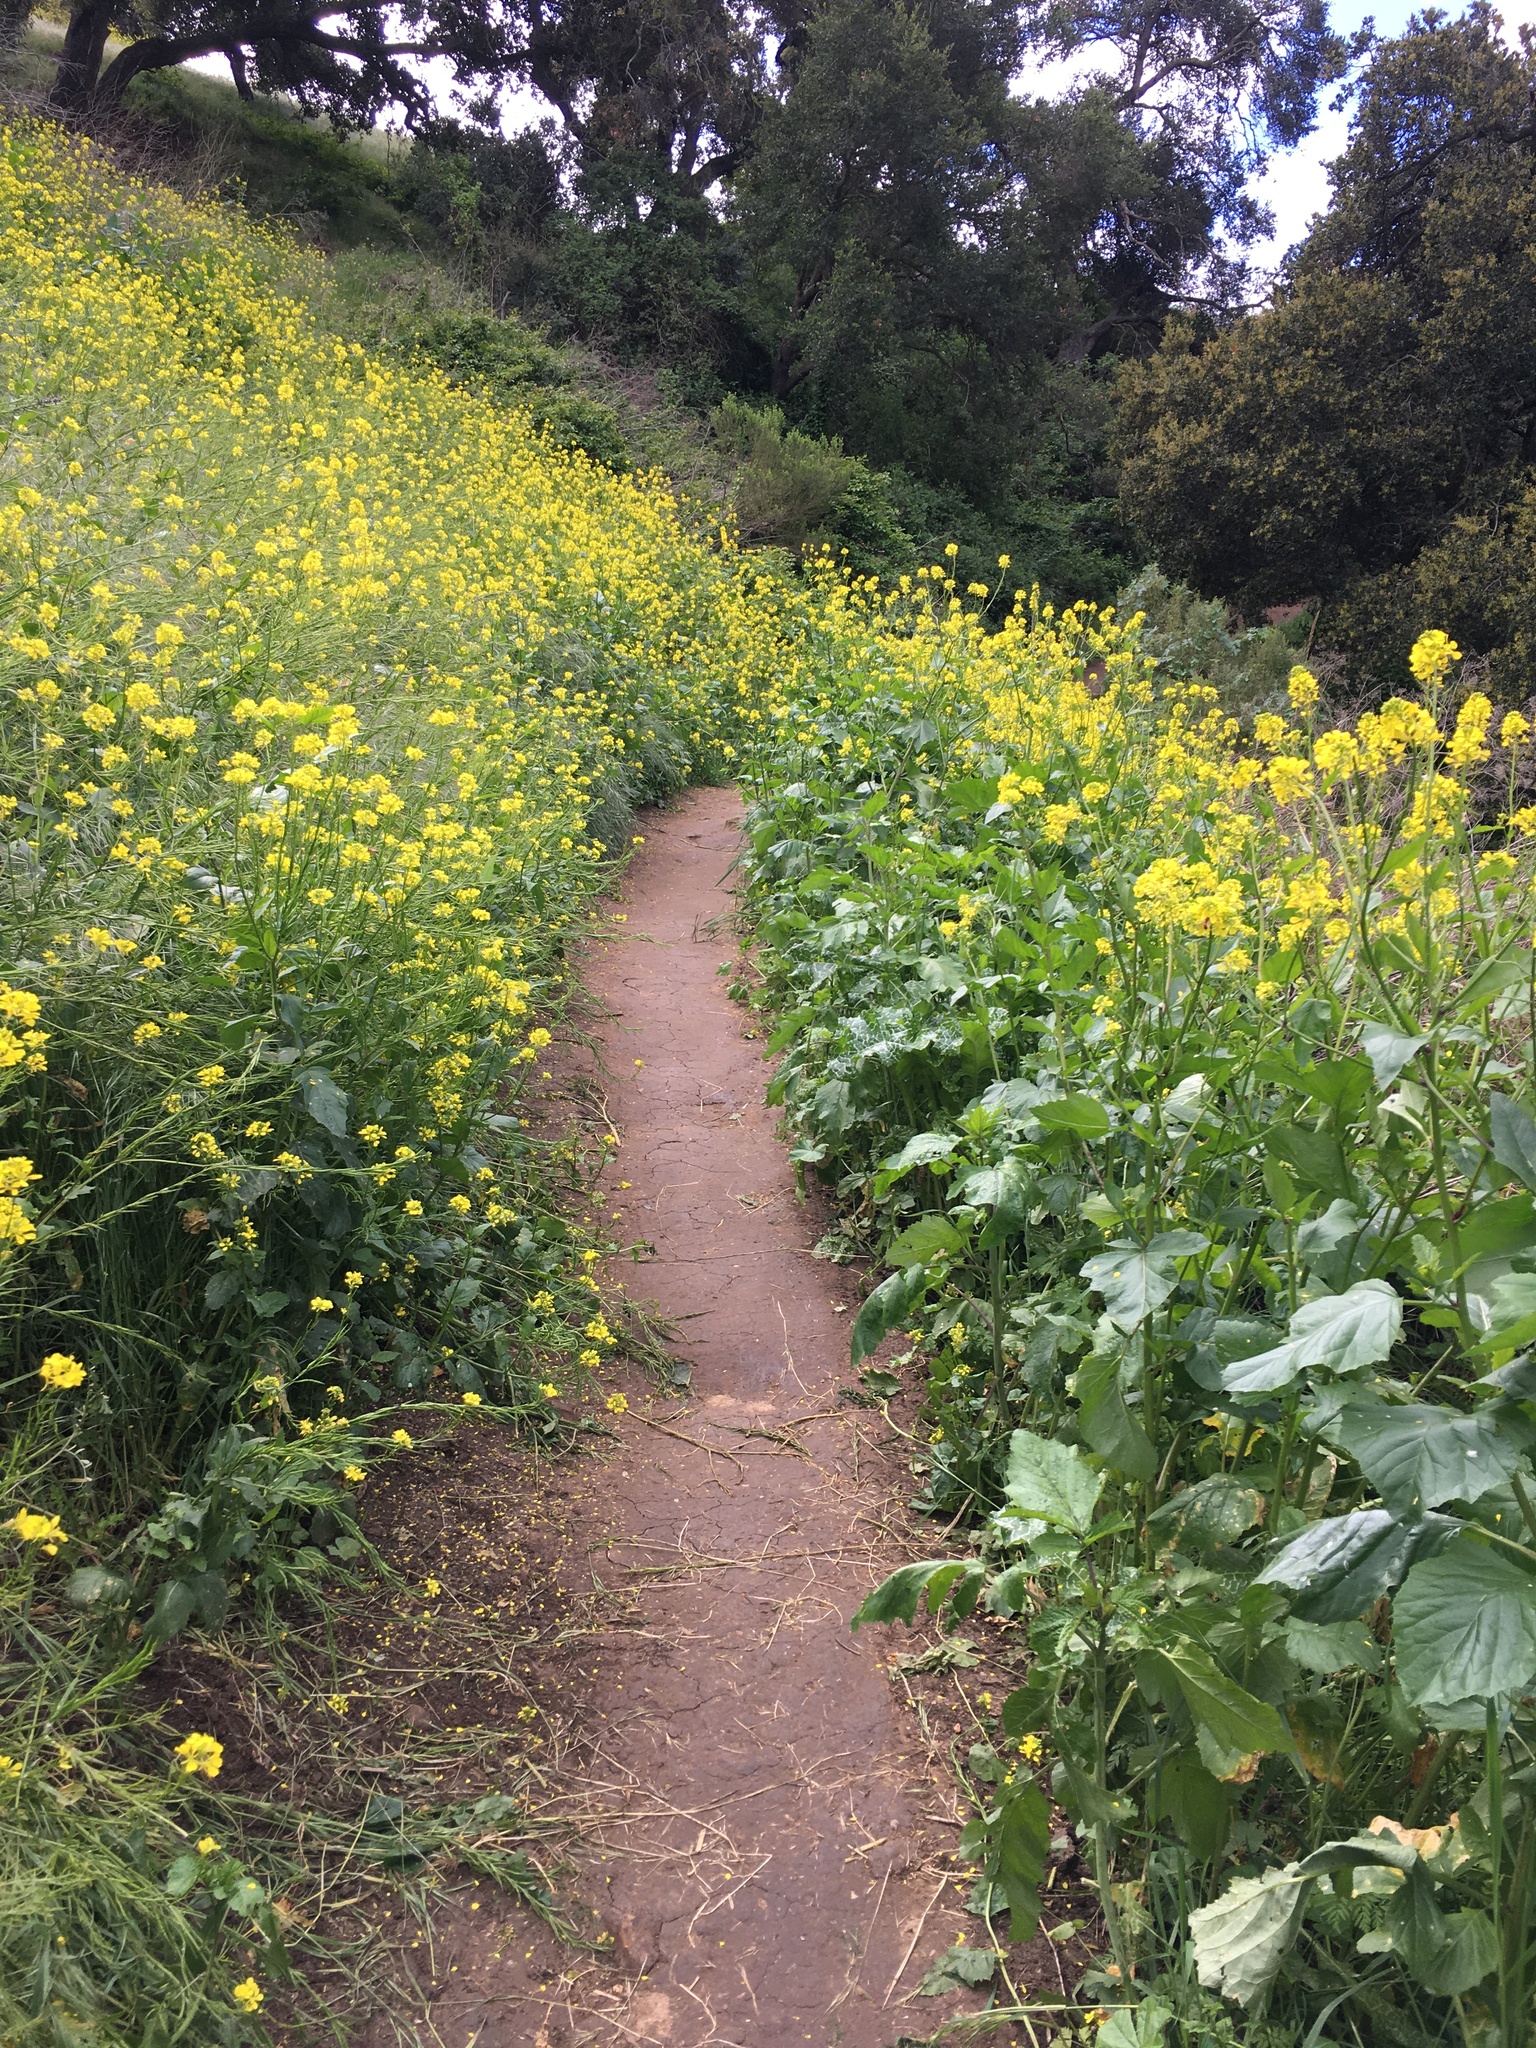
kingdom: Plantae
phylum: Tracheophyta
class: Magnoliopsida
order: Brassicales
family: Brassicaceae
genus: Brassica
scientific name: Brassica nigra
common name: Black mustard
